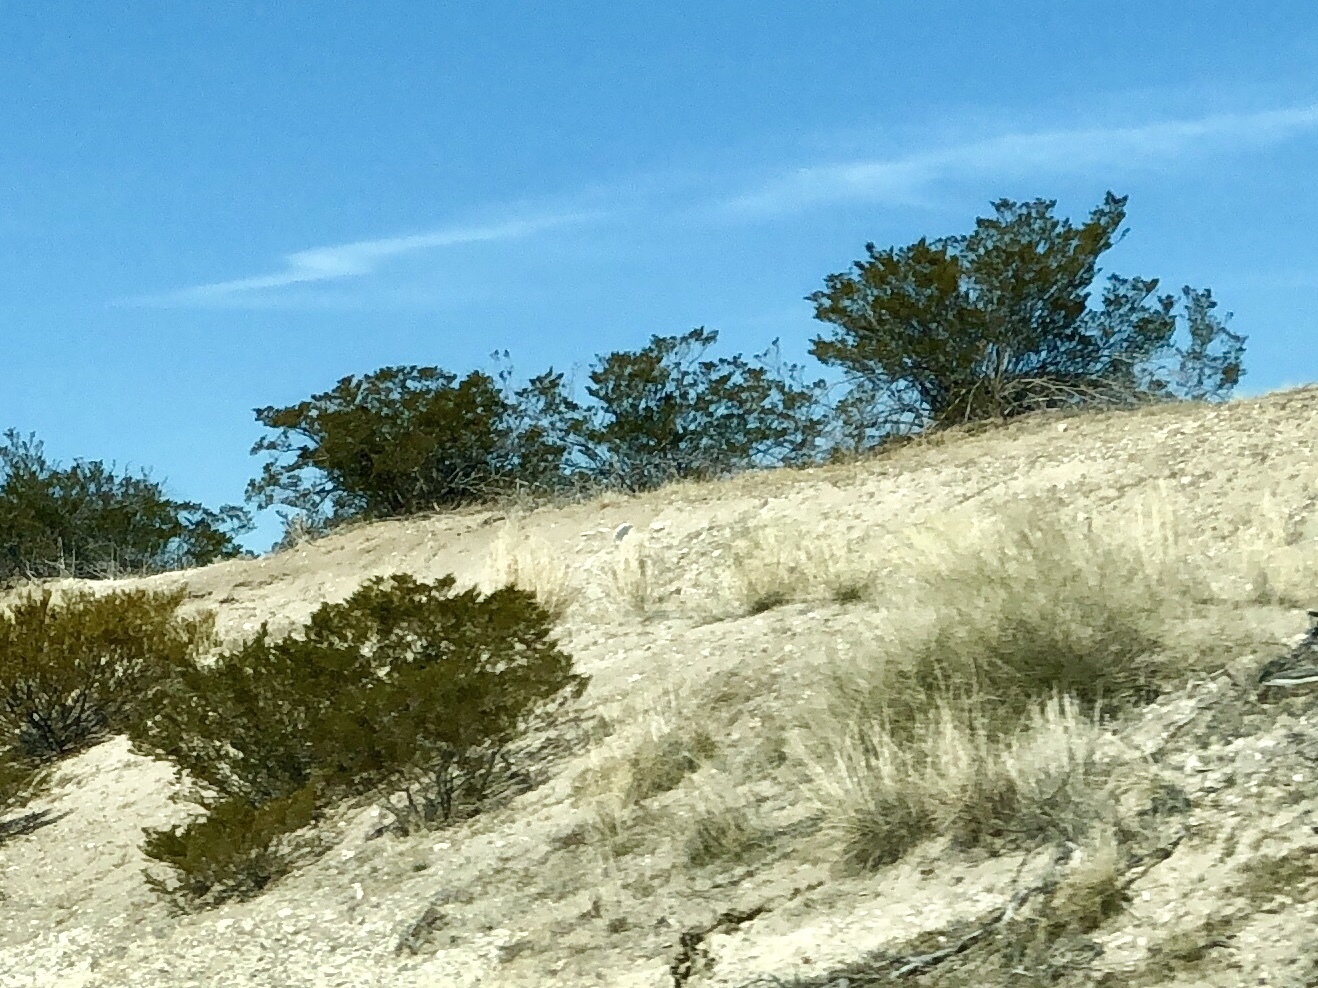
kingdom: Plantae
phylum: Tracheophyta
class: Magnoliopsida
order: Zygophyllales
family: Zygophyllaceae
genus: Larrea
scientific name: Larrea tridentata
